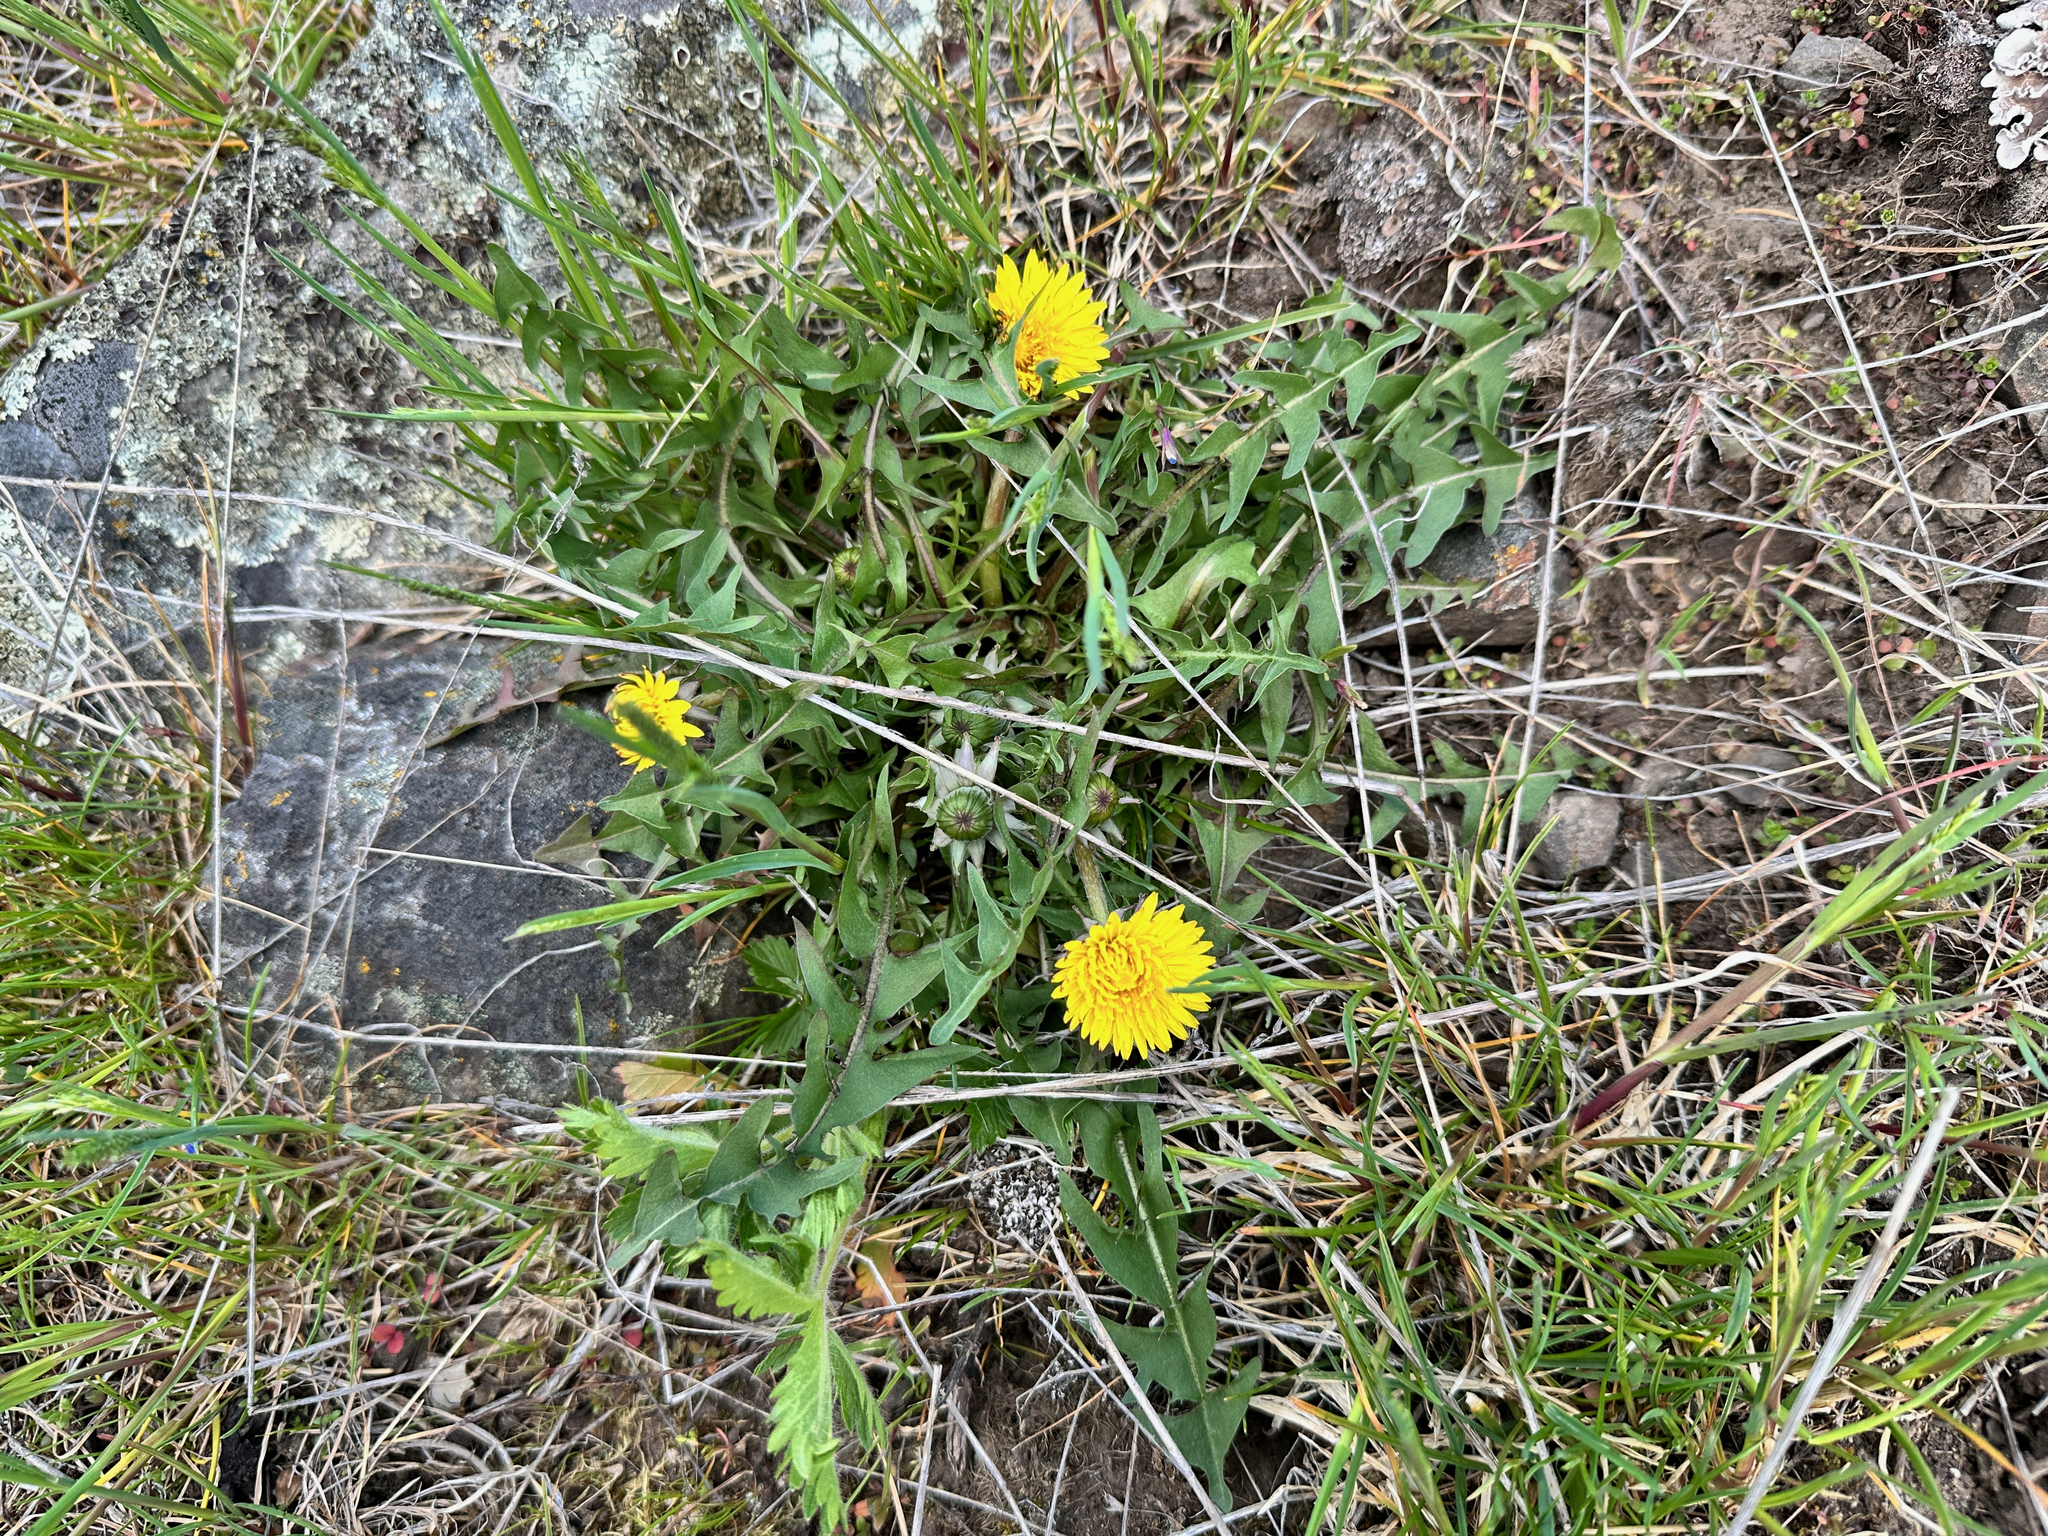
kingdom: Plantae
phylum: Tracheophyta
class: Magnoliopsida
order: Asterales
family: Asteraceae
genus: Taraxacum
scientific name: Taraxacum officinale
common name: Common dandelion
